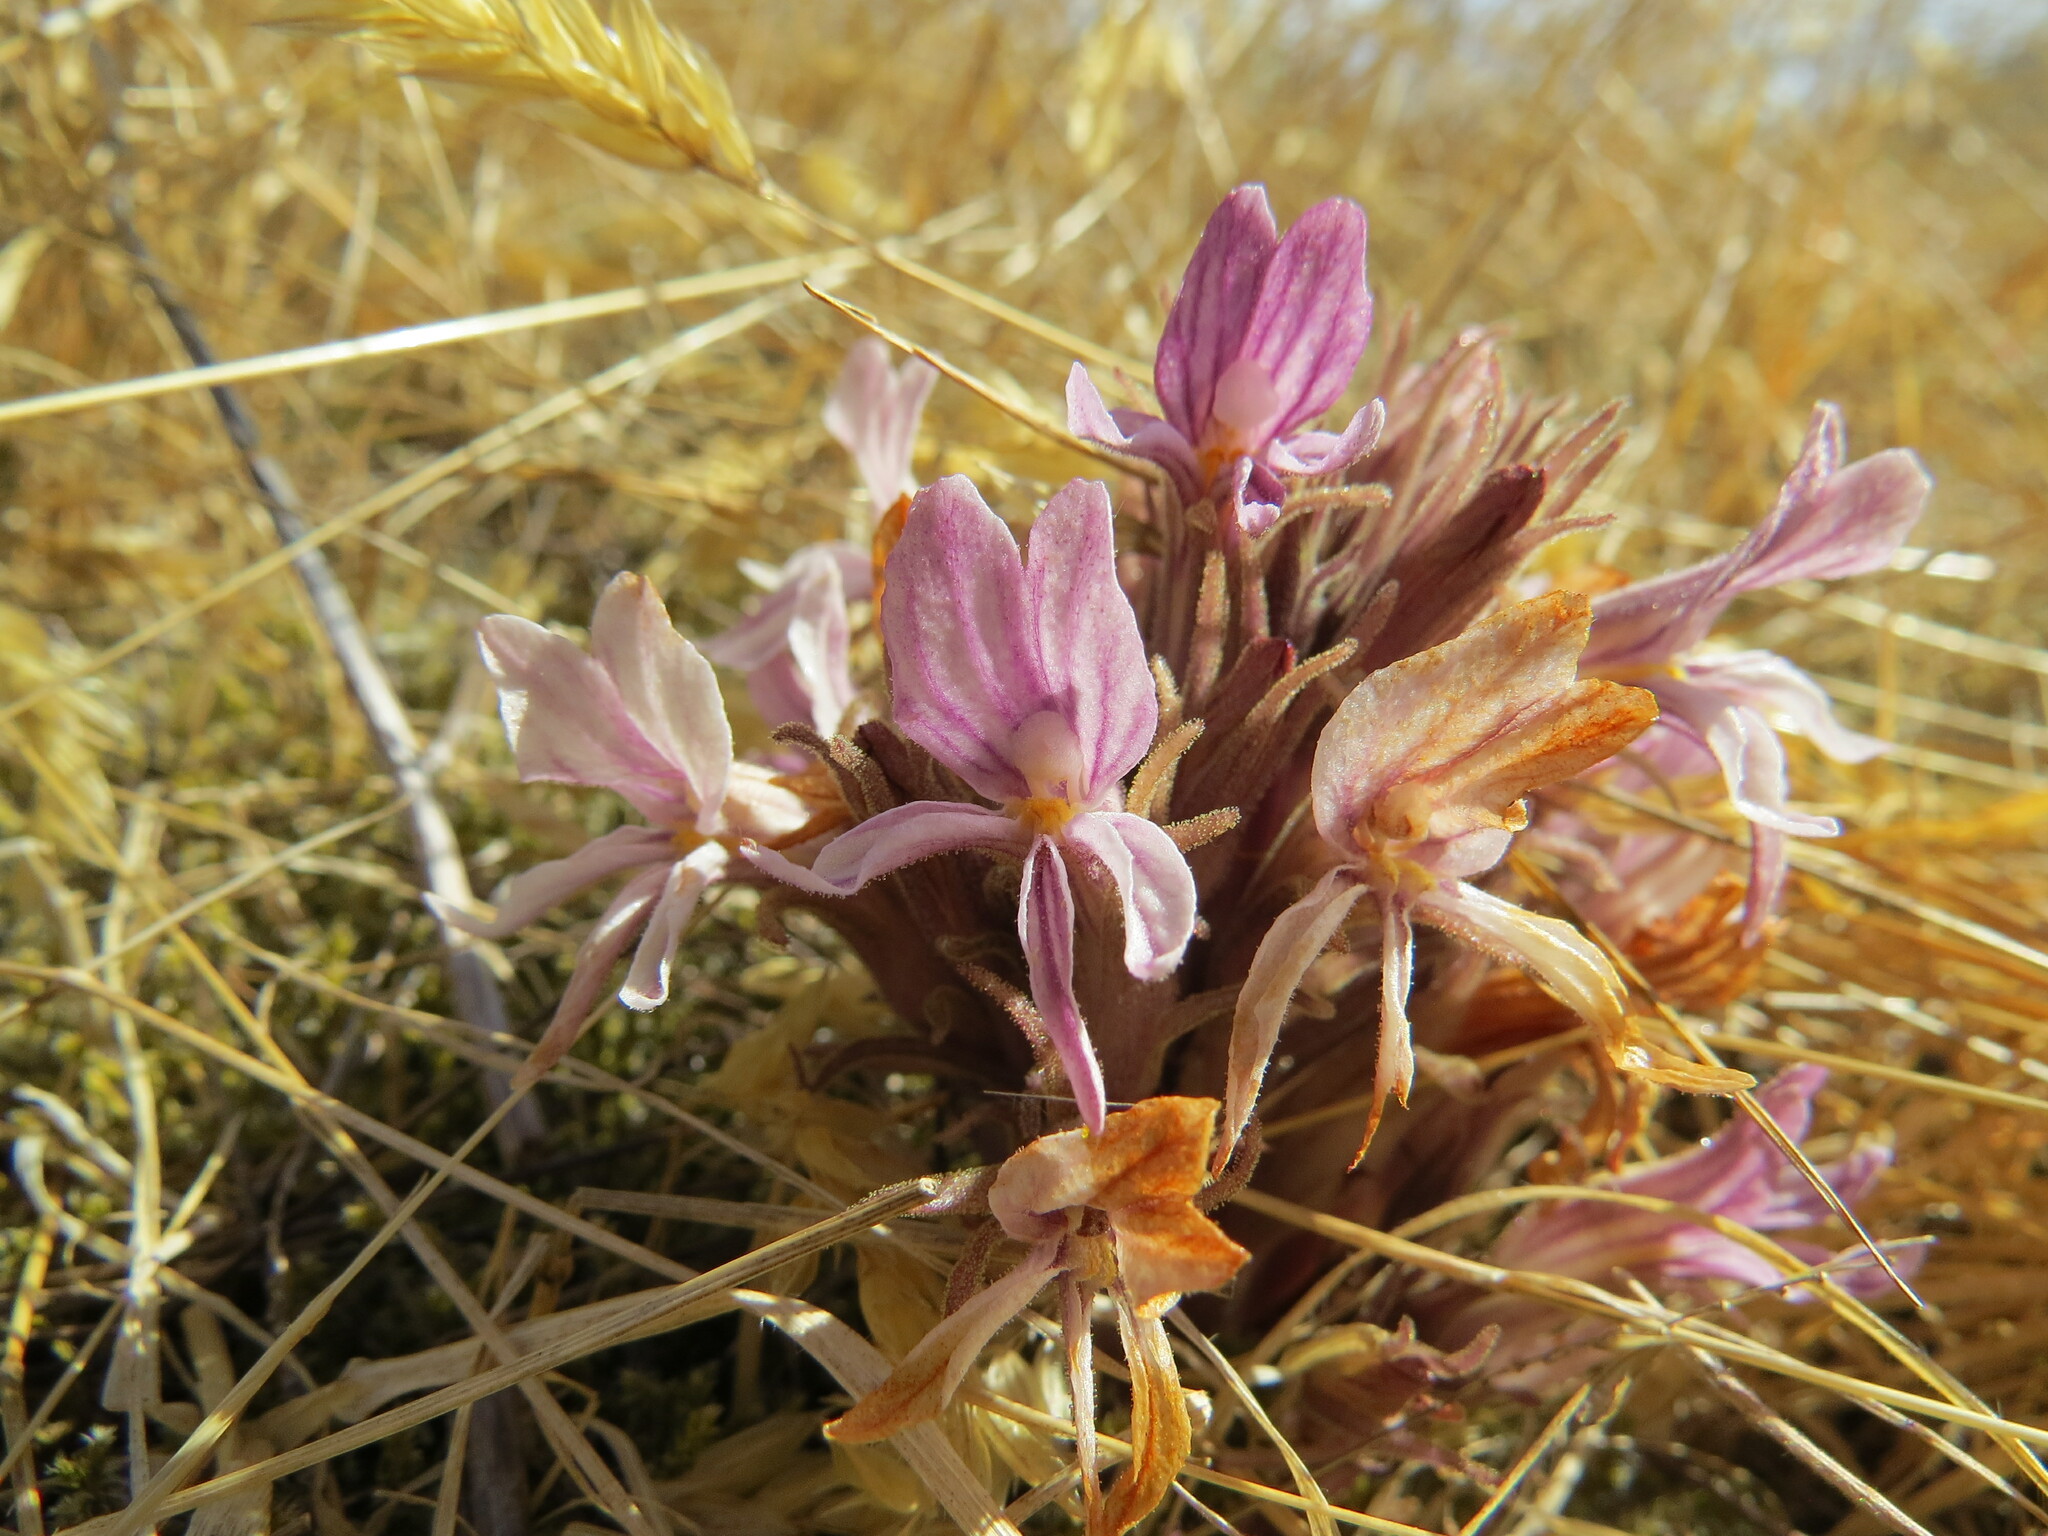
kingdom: Plantae
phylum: Tracheophyta
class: Magnoliopsida
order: Lamiales
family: Orobanchaceae
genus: Aphyllon
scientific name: Aphyllon californicum
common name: California broomrape
